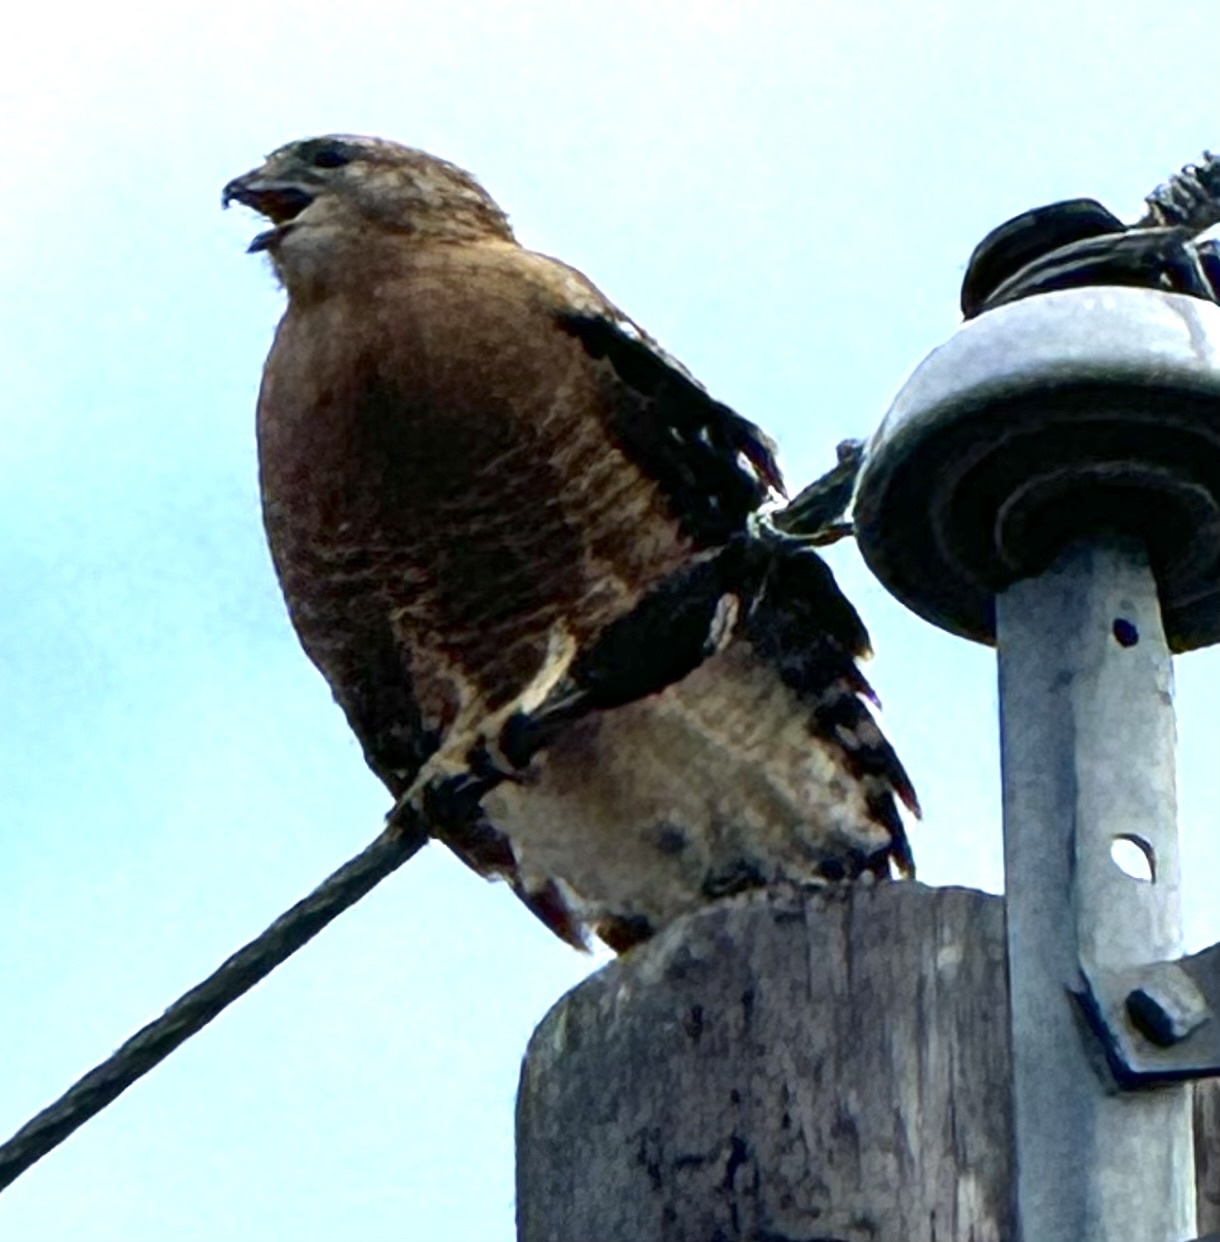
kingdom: Animalia
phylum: Chordata
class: Aves
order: Accipitriformes
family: Accipitridae
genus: Buteo
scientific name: Buteo lineatus
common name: Red-shouldered hawk
